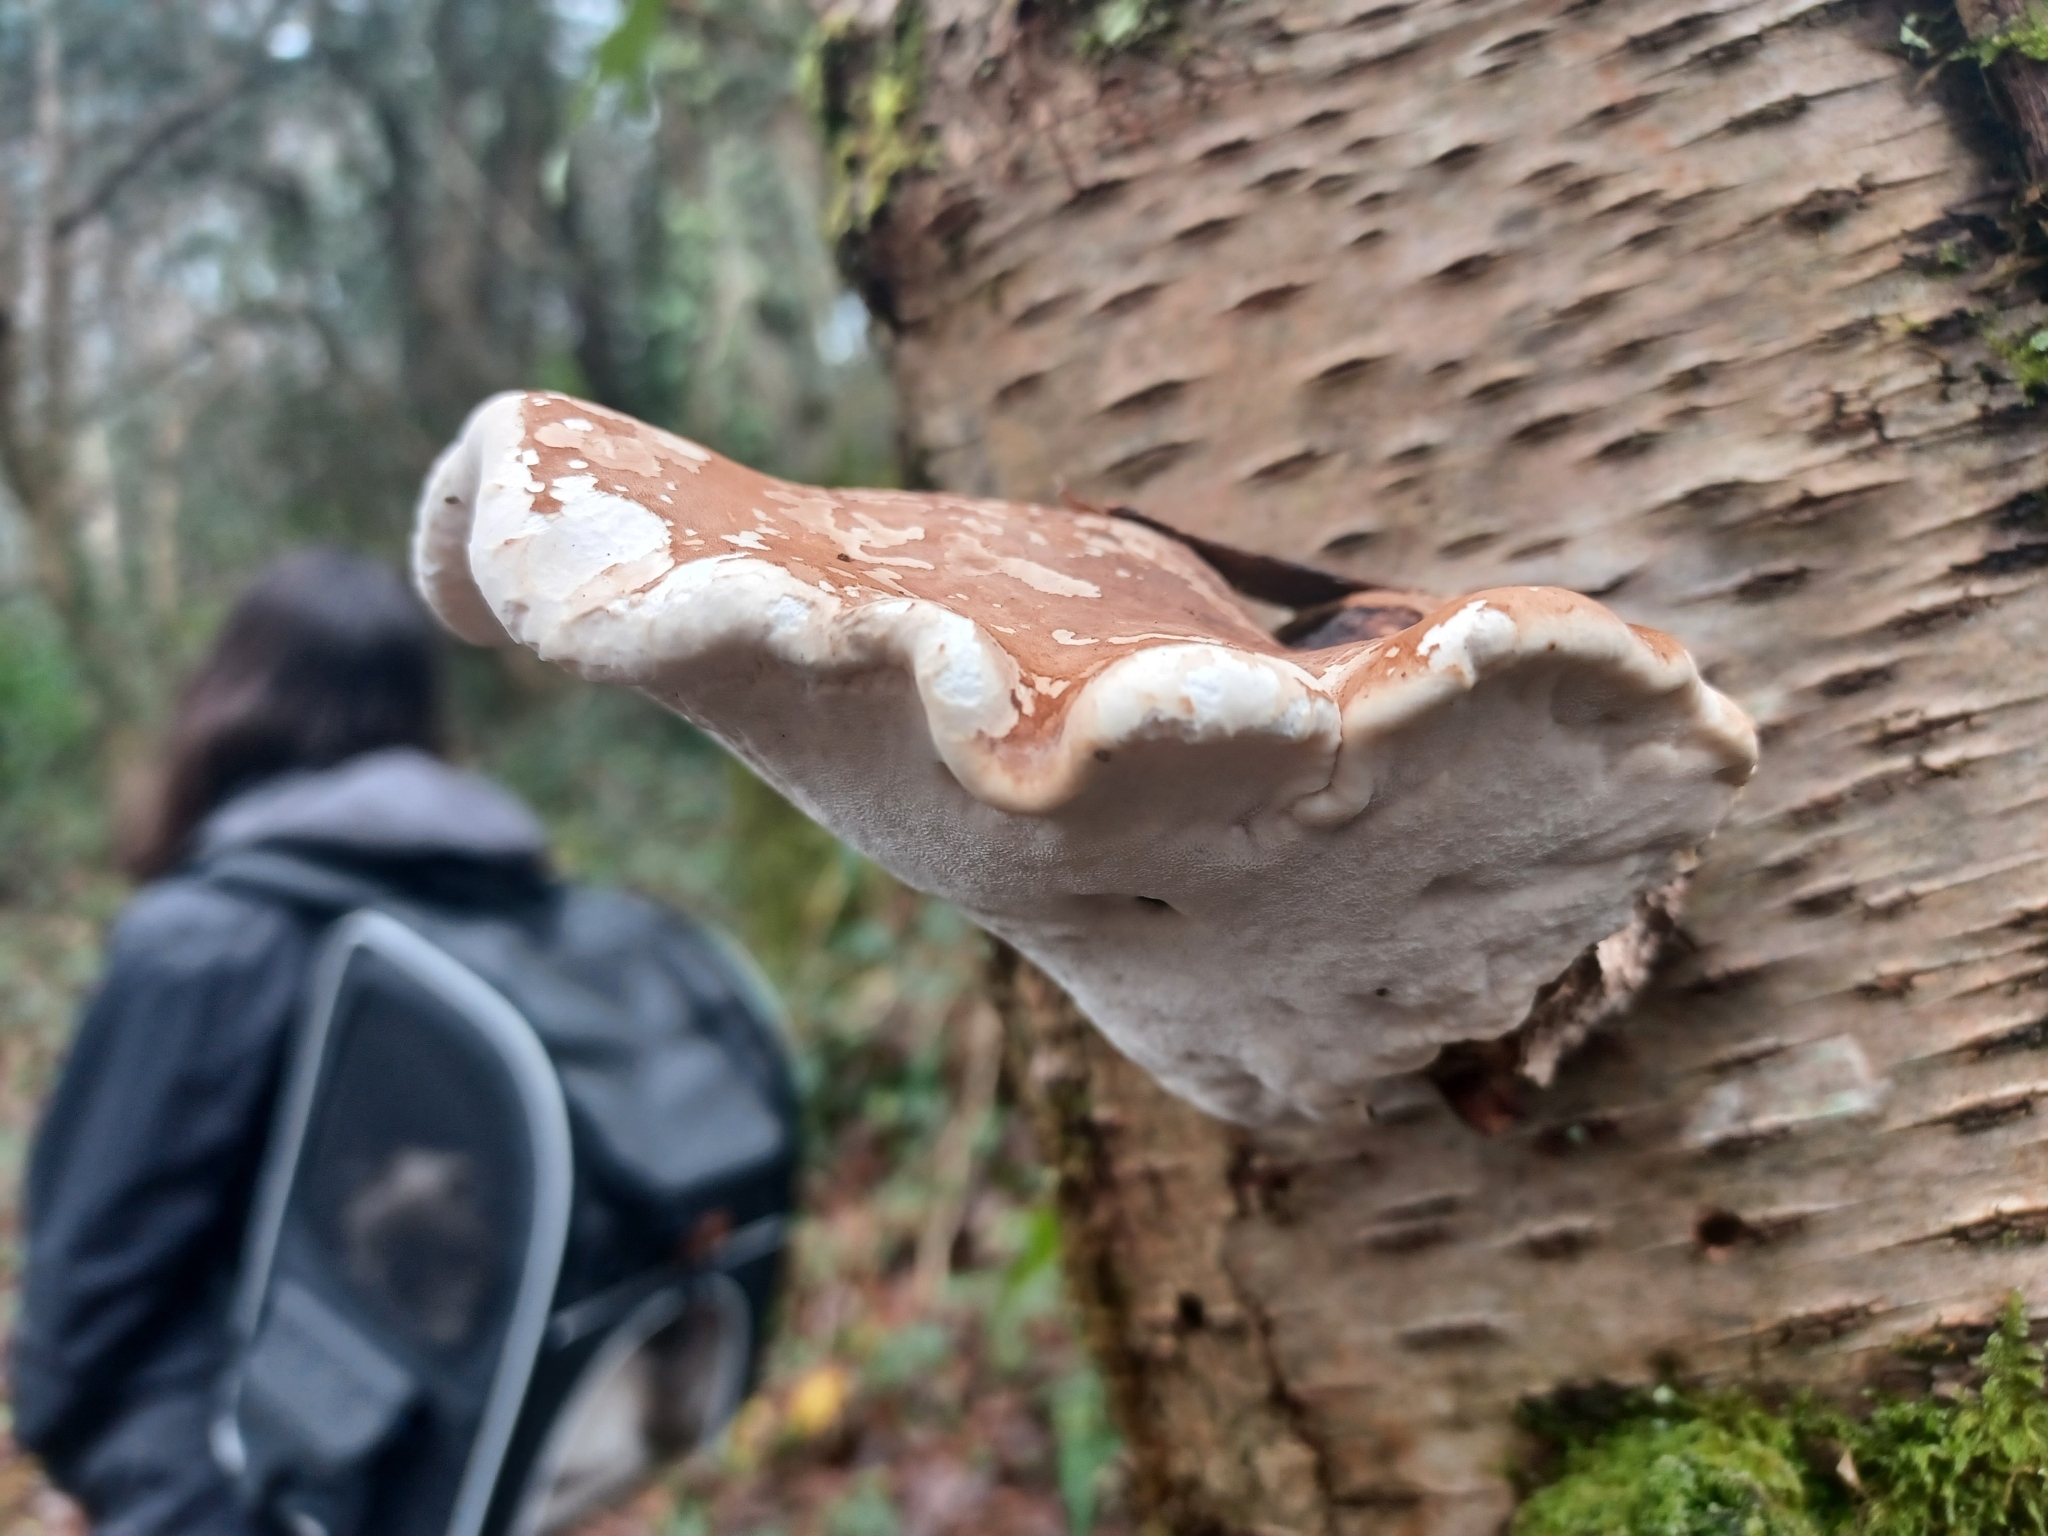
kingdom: Fungi
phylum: Basidiomycota
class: Agaricomycetes
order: Polyporales
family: Fomitopsidaceae
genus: Fomitopsis
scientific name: Fomitopsis betulina
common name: Birch polypore
